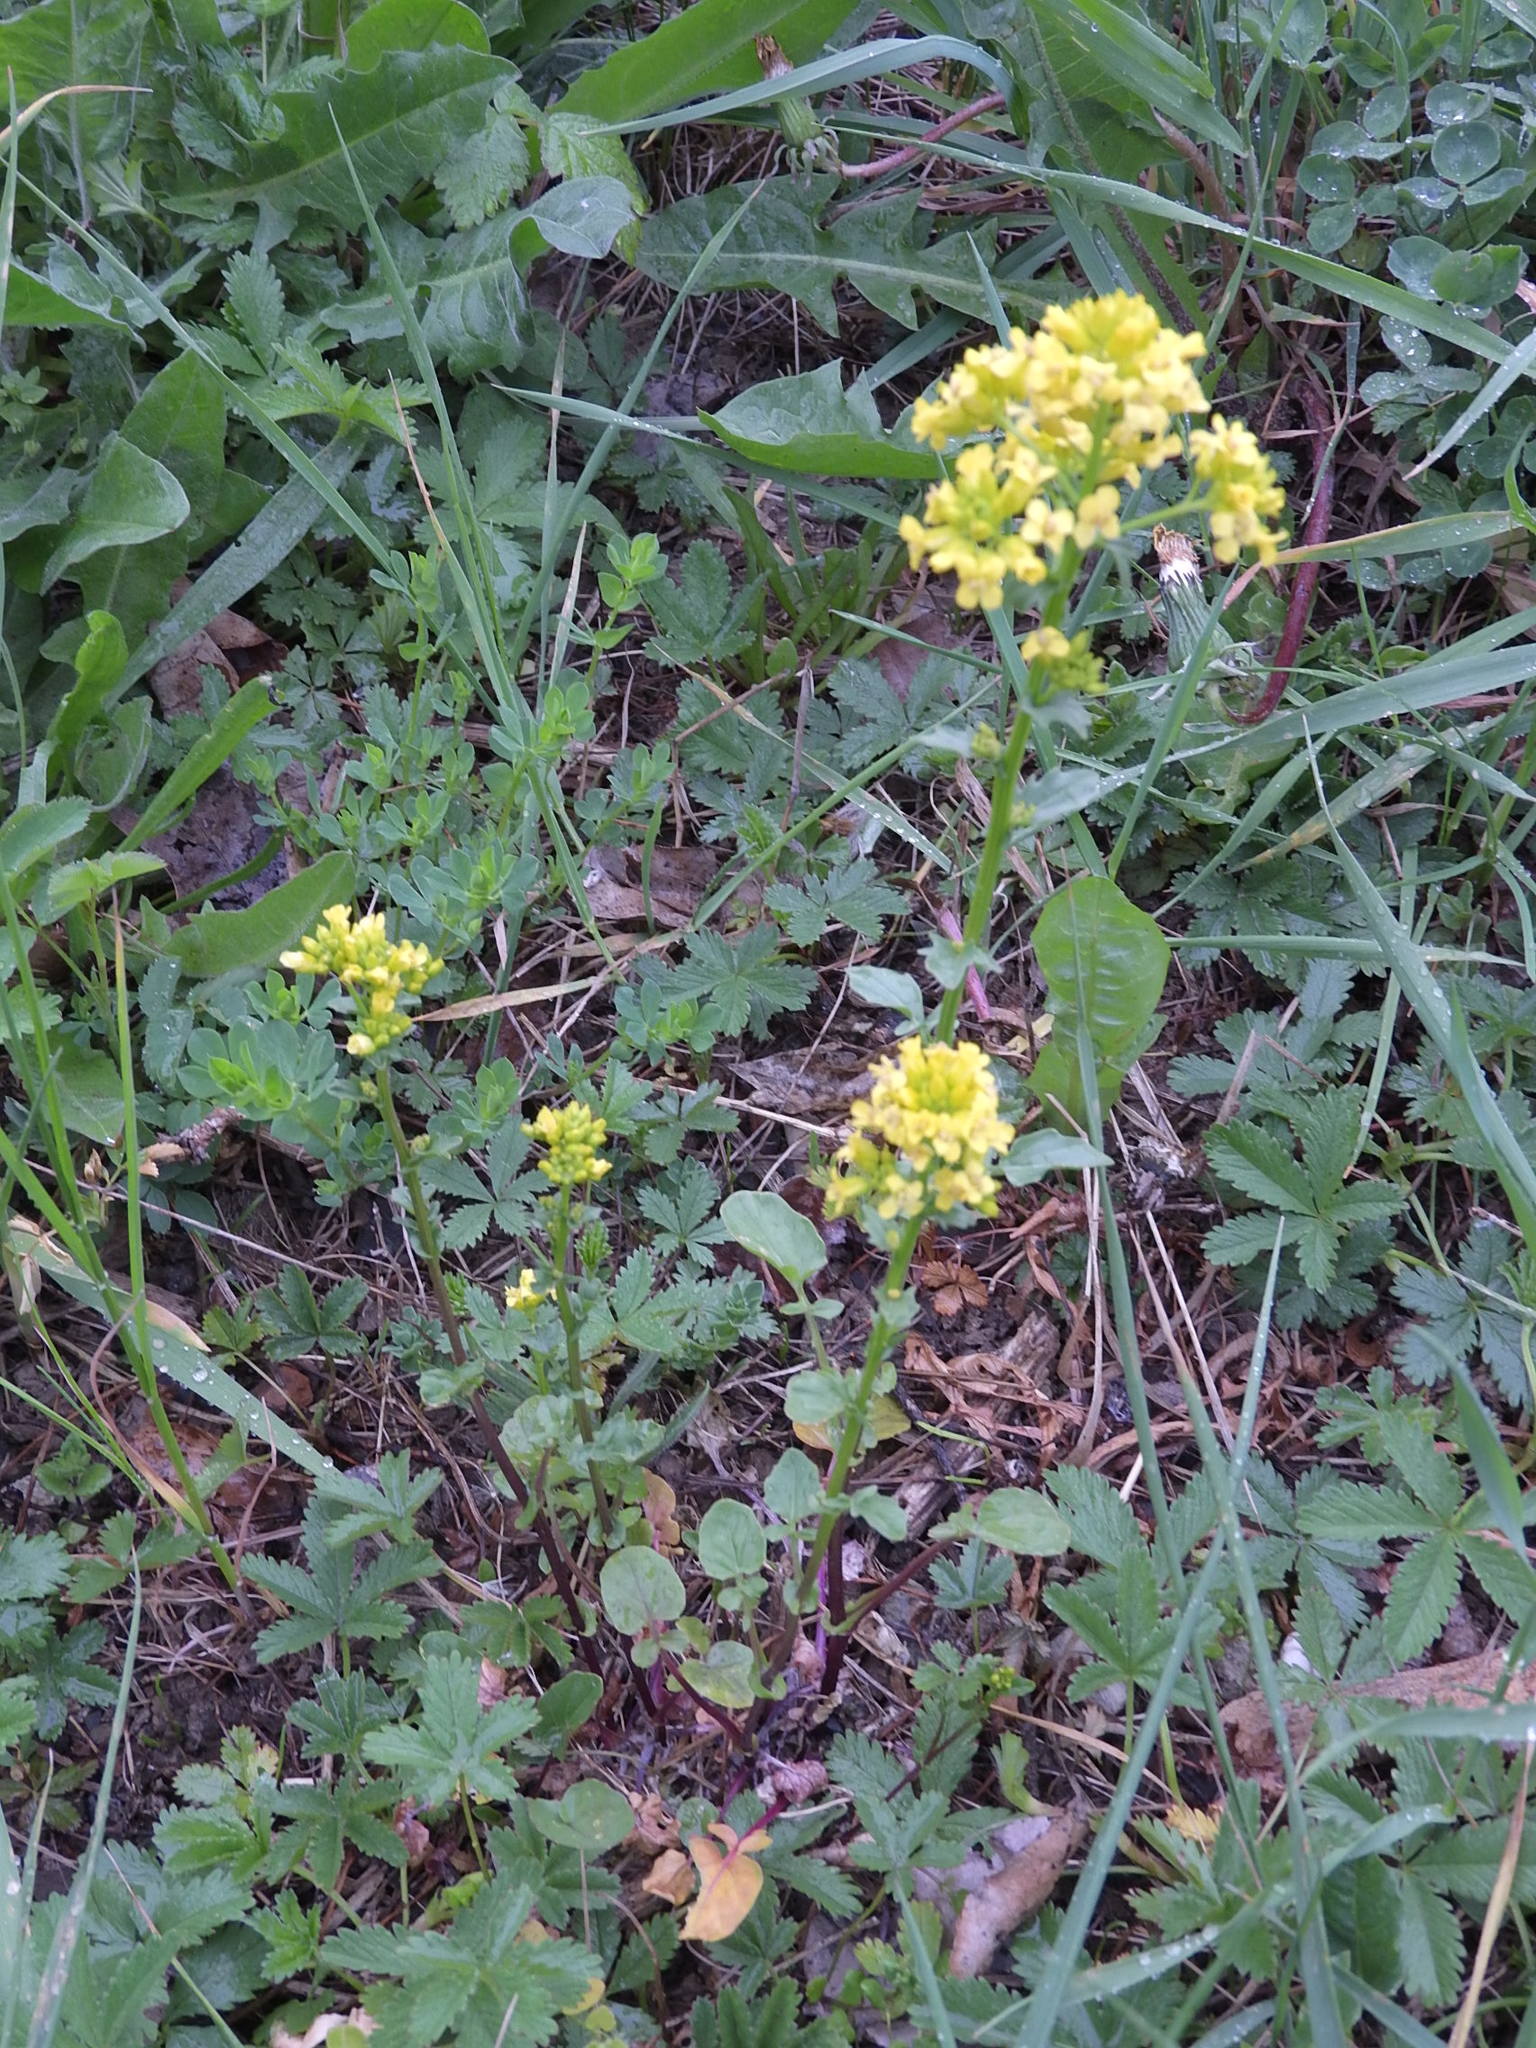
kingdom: Plantae
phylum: Tracheophyta
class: Magnoliopsida
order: Brassicales
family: Brassicaceae
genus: Barbarea
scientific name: Barbarea vulgaris
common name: Cressy-greens
